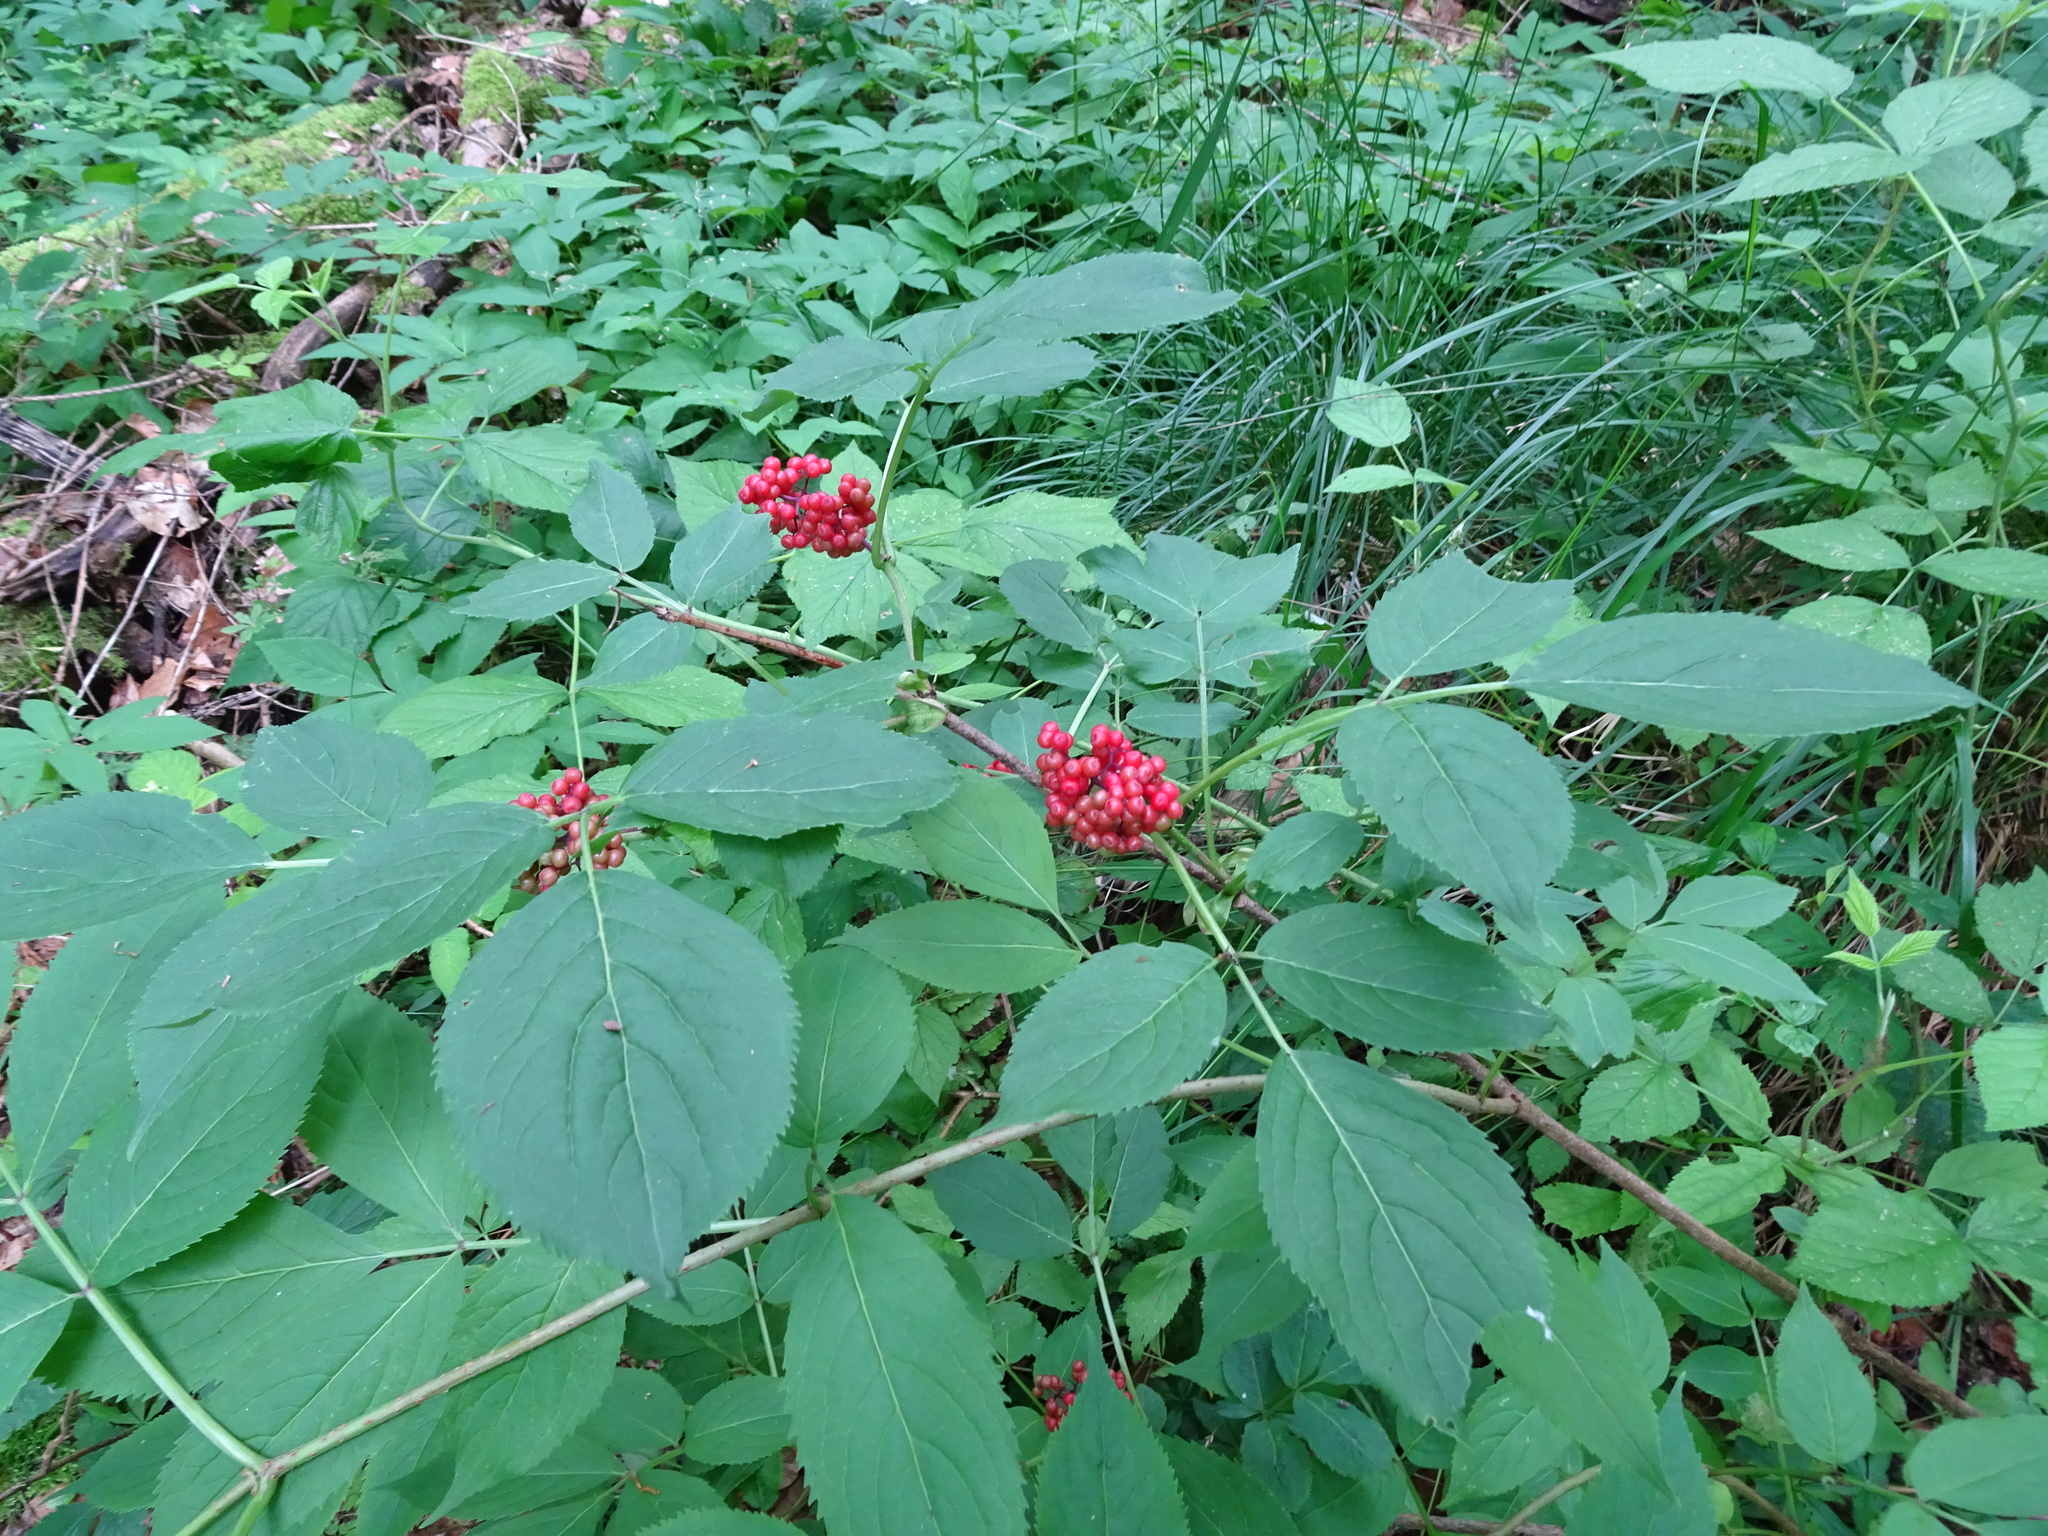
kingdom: Plantae
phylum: Tracheophyta
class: Magnoliopsida
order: Dipsacales
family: Viburnaceae
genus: Sambucus
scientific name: Sambucus racemosa
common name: Red-berried elder
